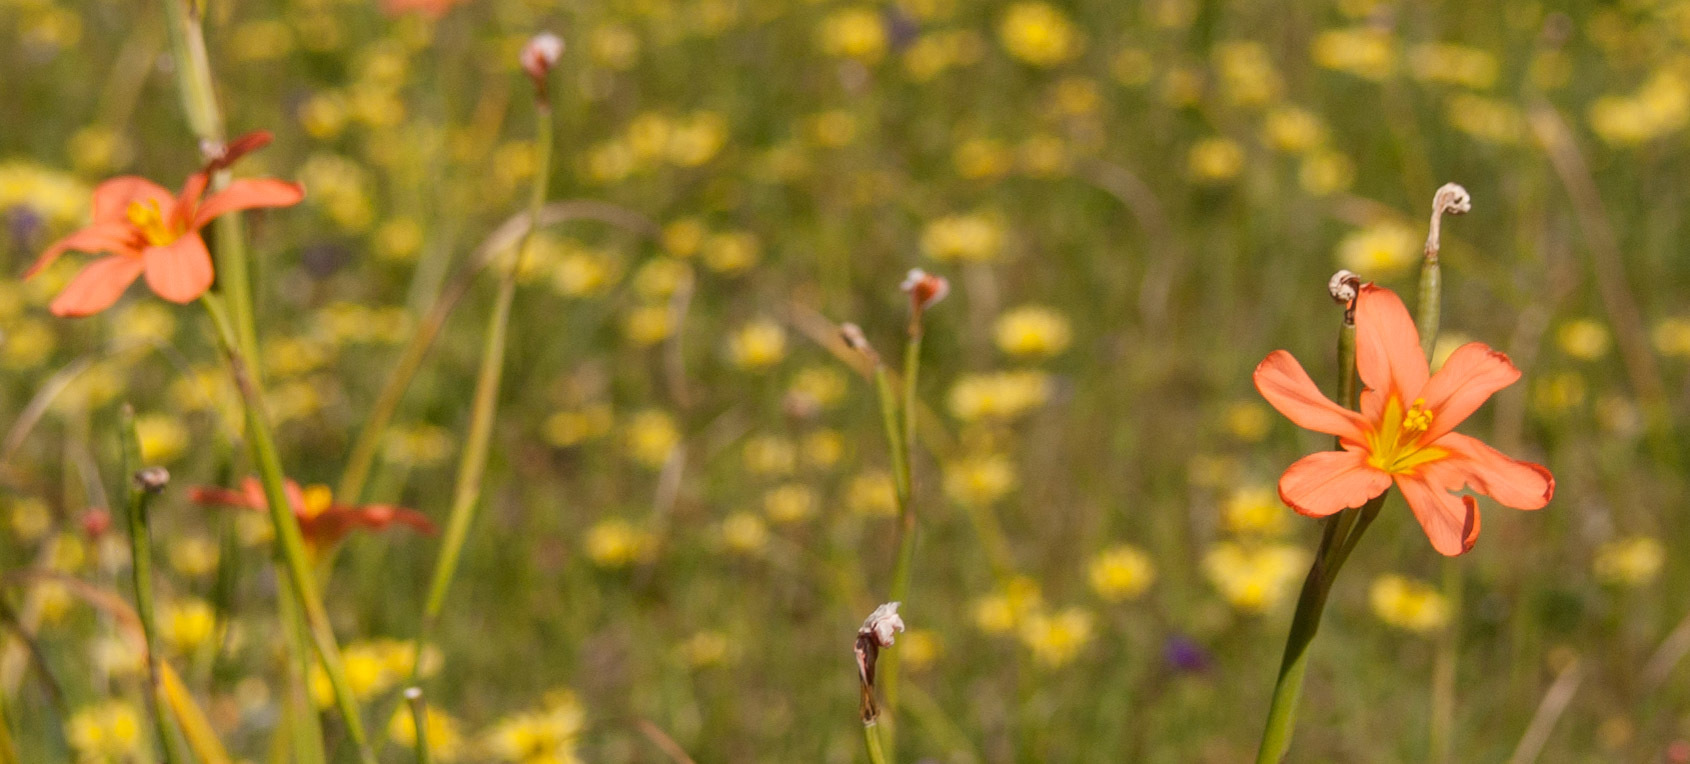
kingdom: Plantae
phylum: Tracheophyta
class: Liliopsida
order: Asparagales
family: Iridaceae
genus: Moraea
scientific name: Moraea flaccida
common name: One-leaf cape-tulip
